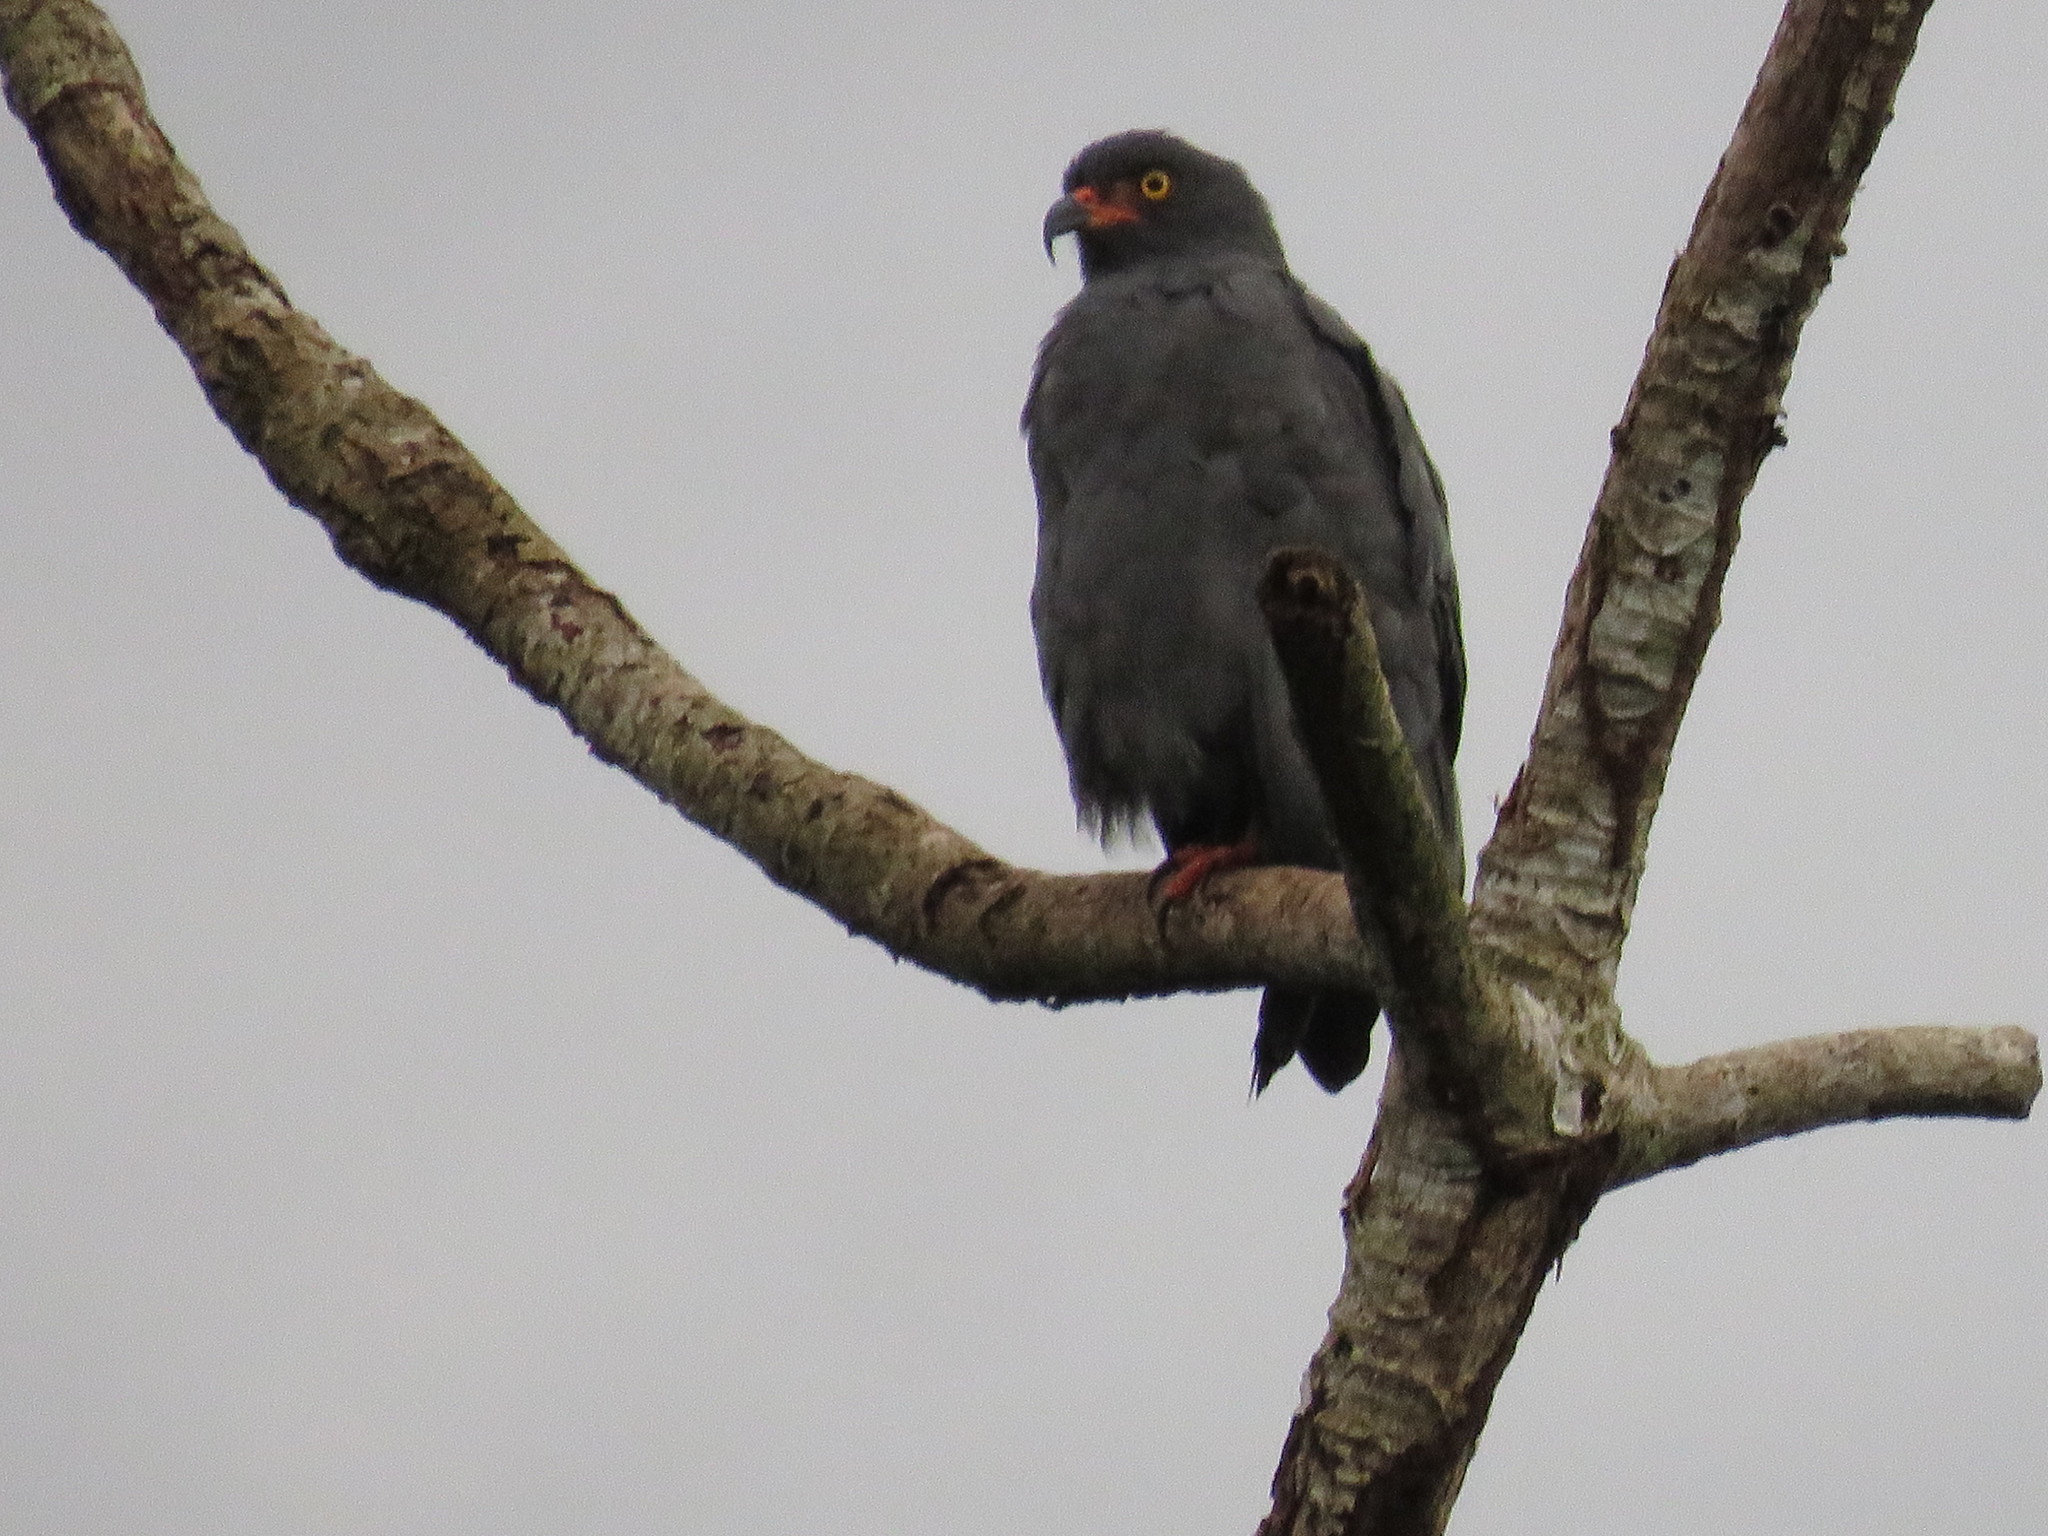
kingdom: Animalia
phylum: Chordata
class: Aves
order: Accipitriformes
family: Accipitridae
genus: Helicolestes
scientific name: Helicolestes hamatus
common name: Slender-billed kite
